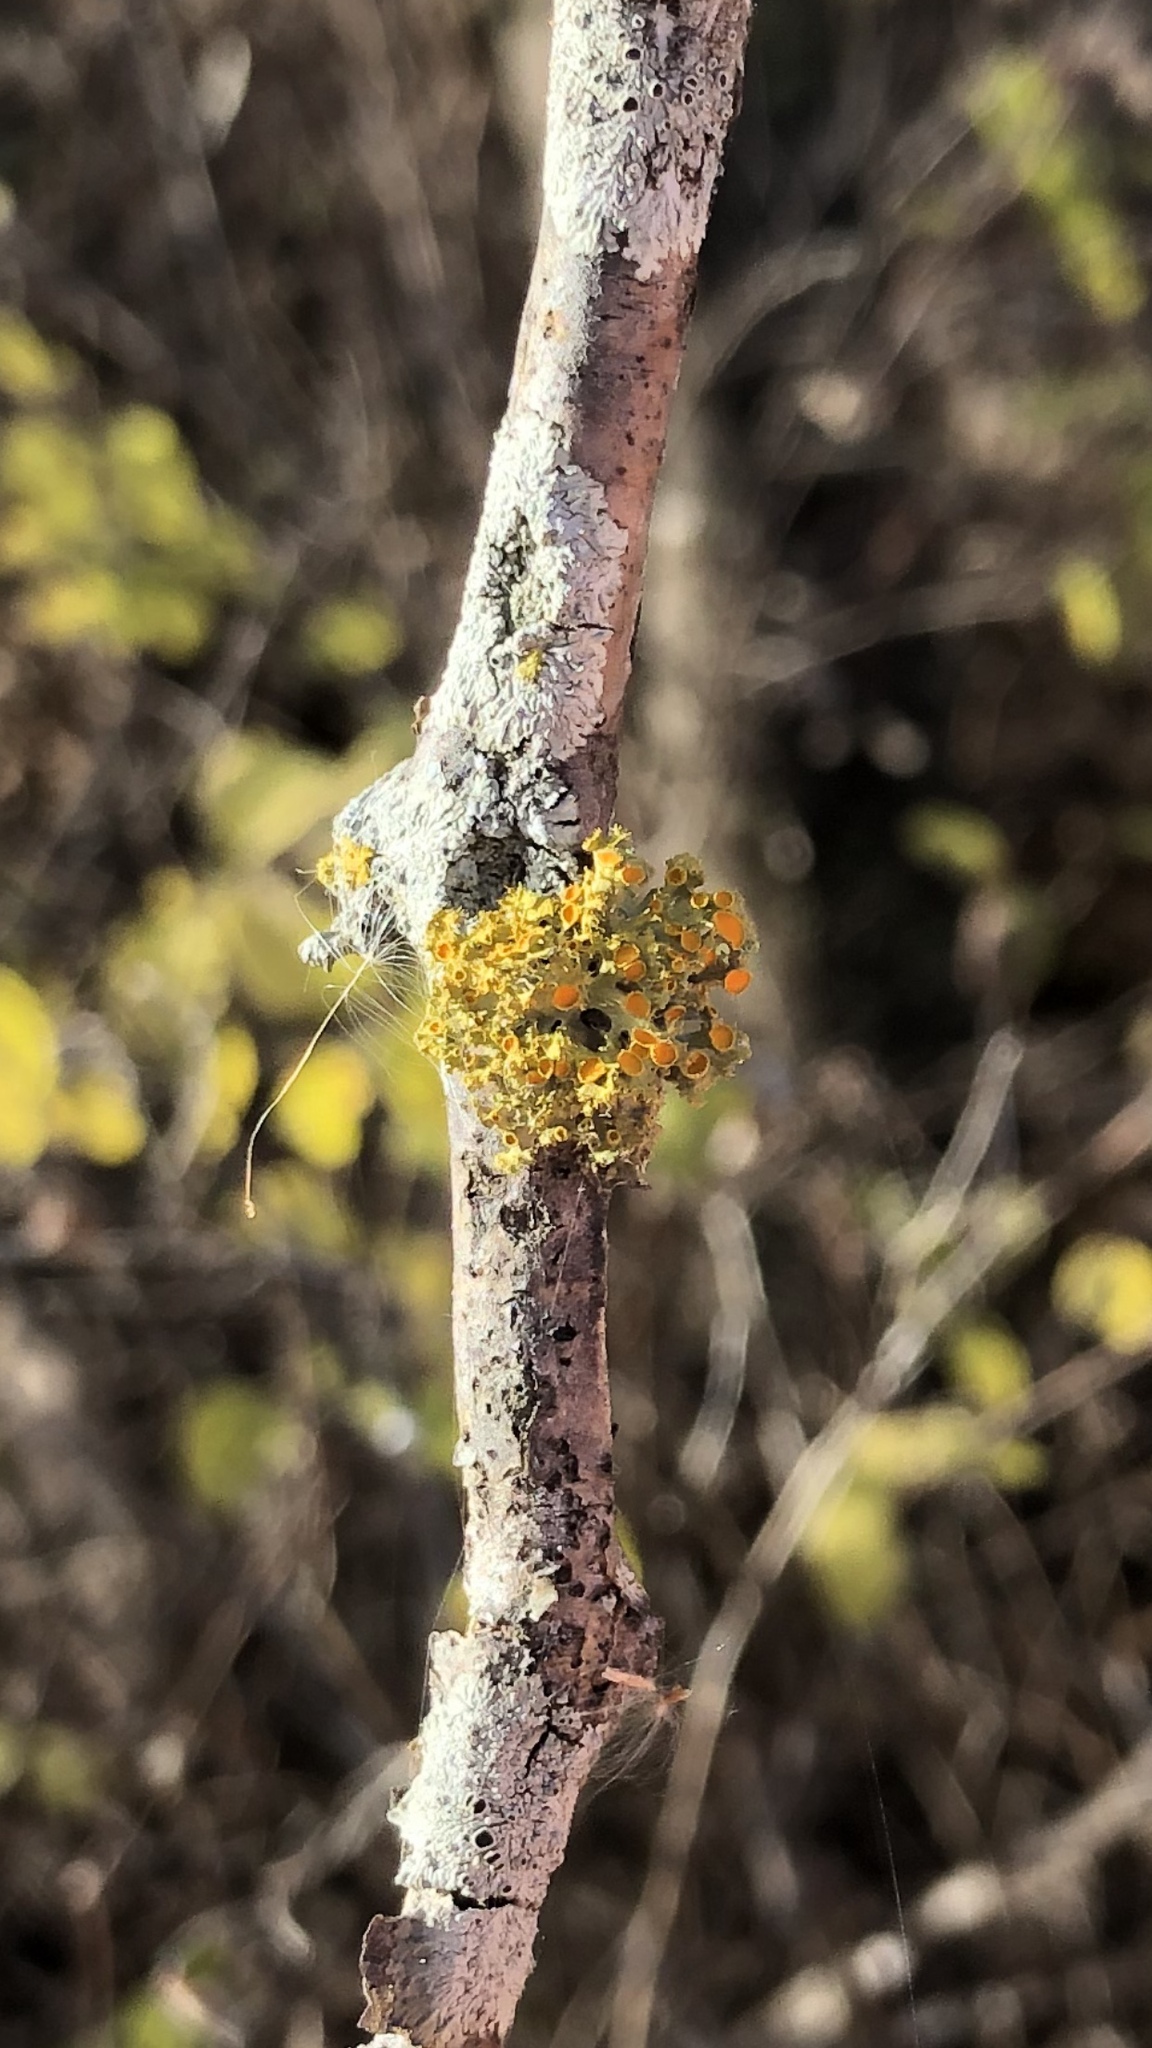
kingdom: Fungi
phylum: Ascomycota
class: Lecanoromycetes
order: Teloschistales
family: Teloschistaceae
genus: Niorma
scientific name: Niorma chrysophthalma
